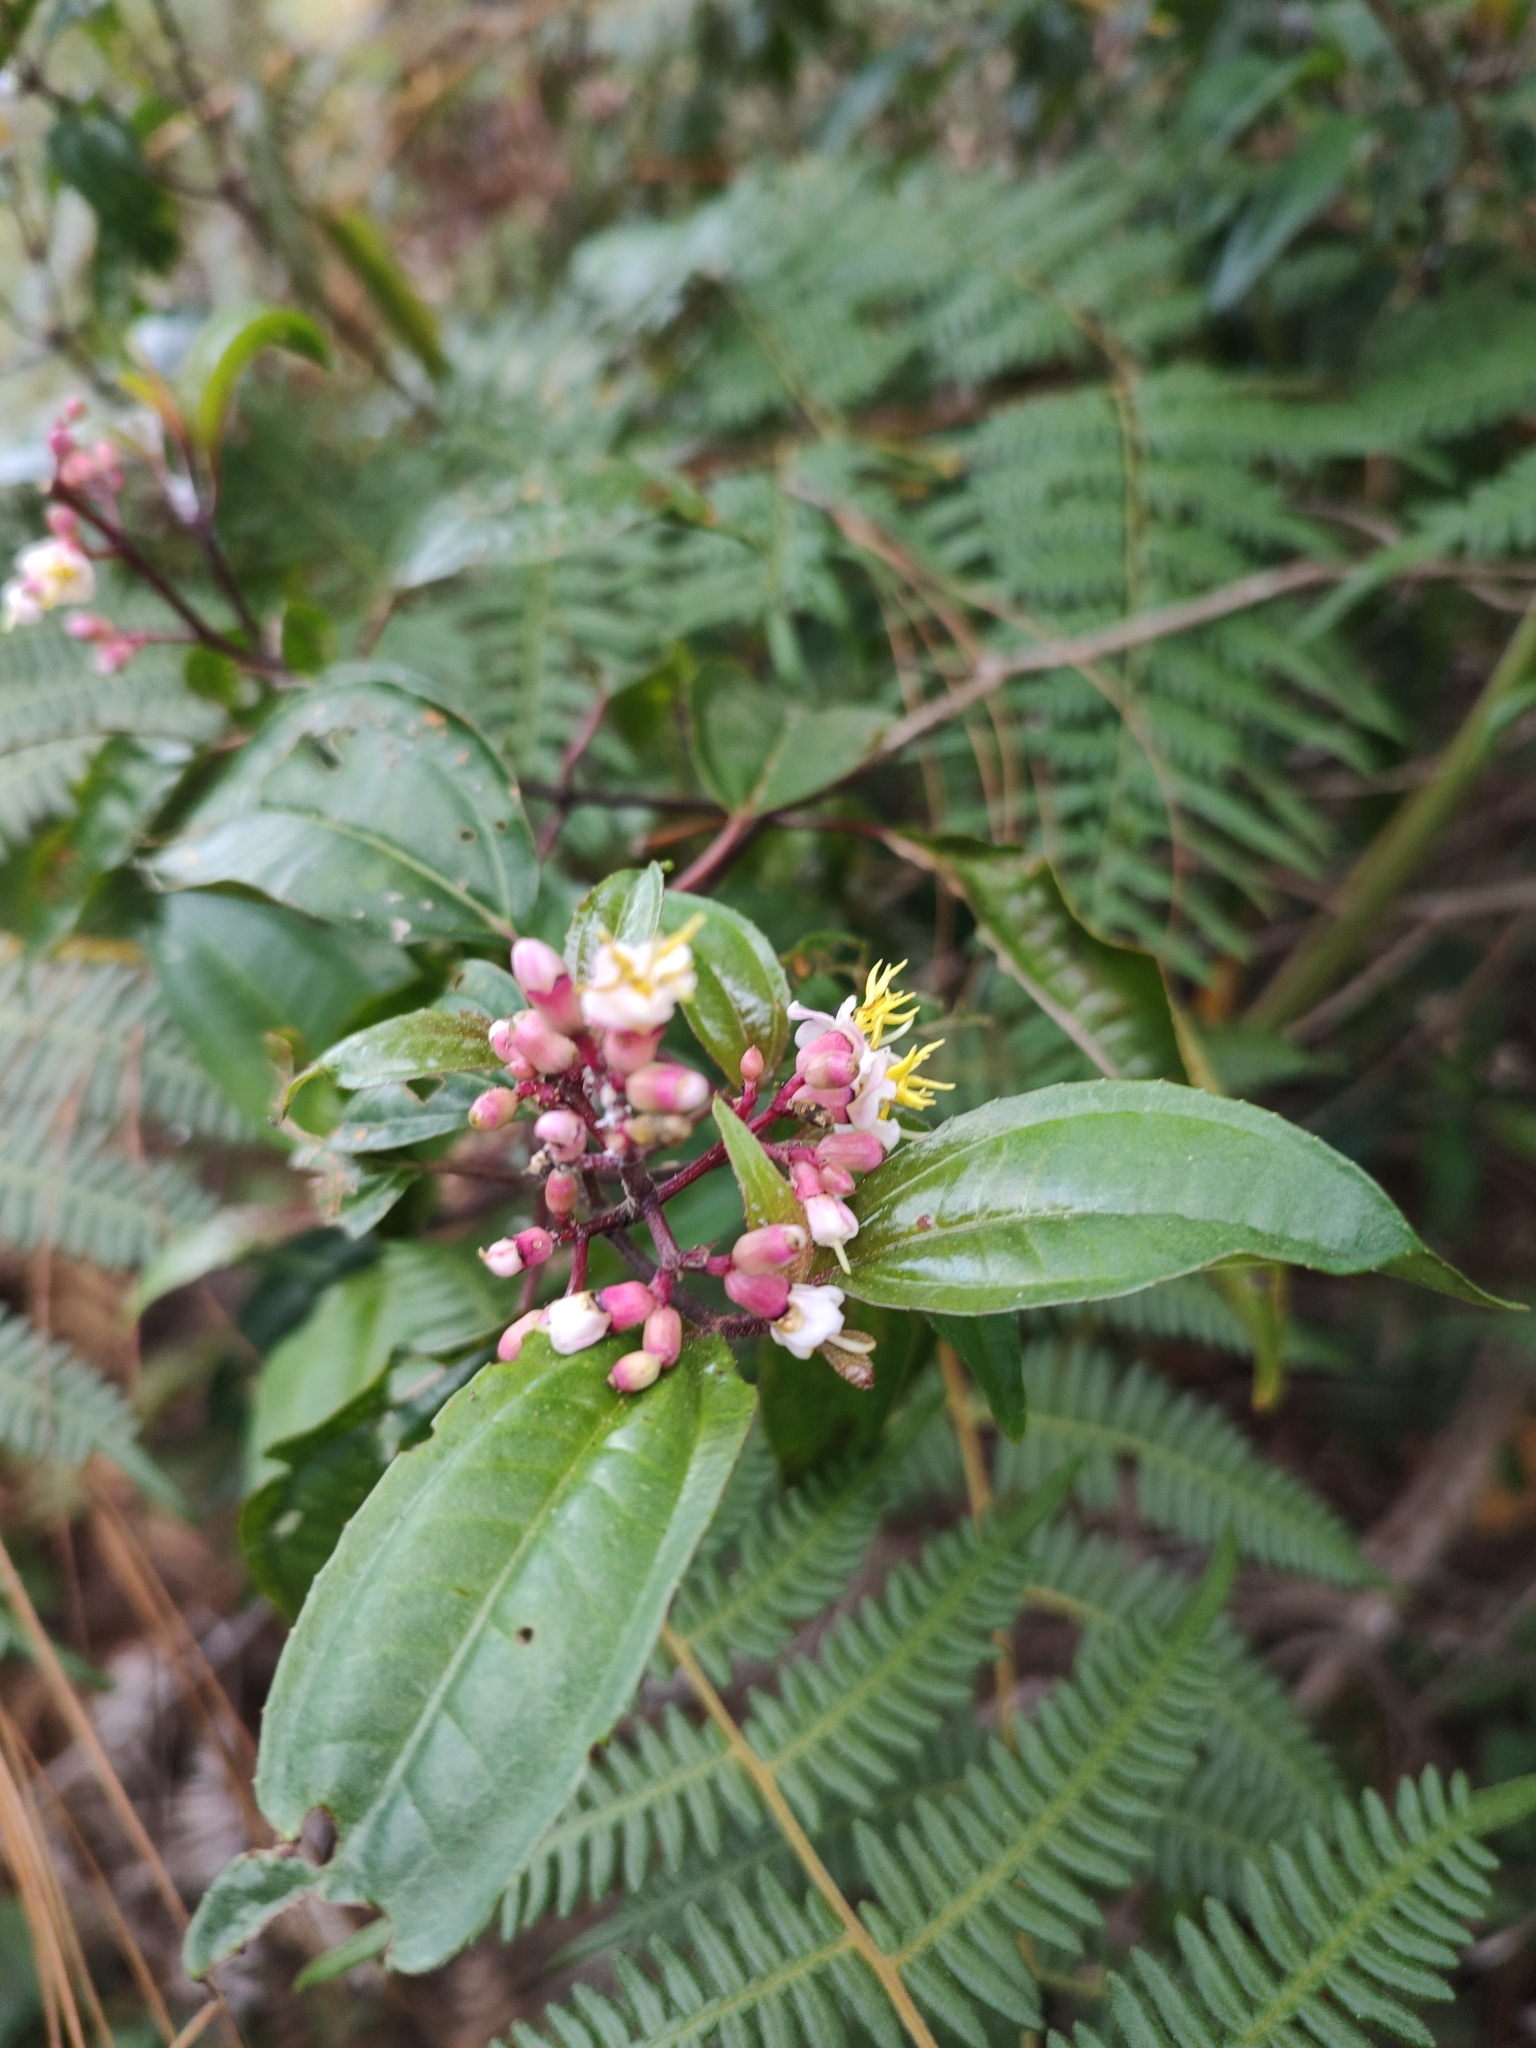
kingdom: Plantae
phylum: Tracheophyta
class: Magnoliopsida
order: Myrtales
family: Melastomataceae
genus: Miconia
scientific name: Miconia mexicana
